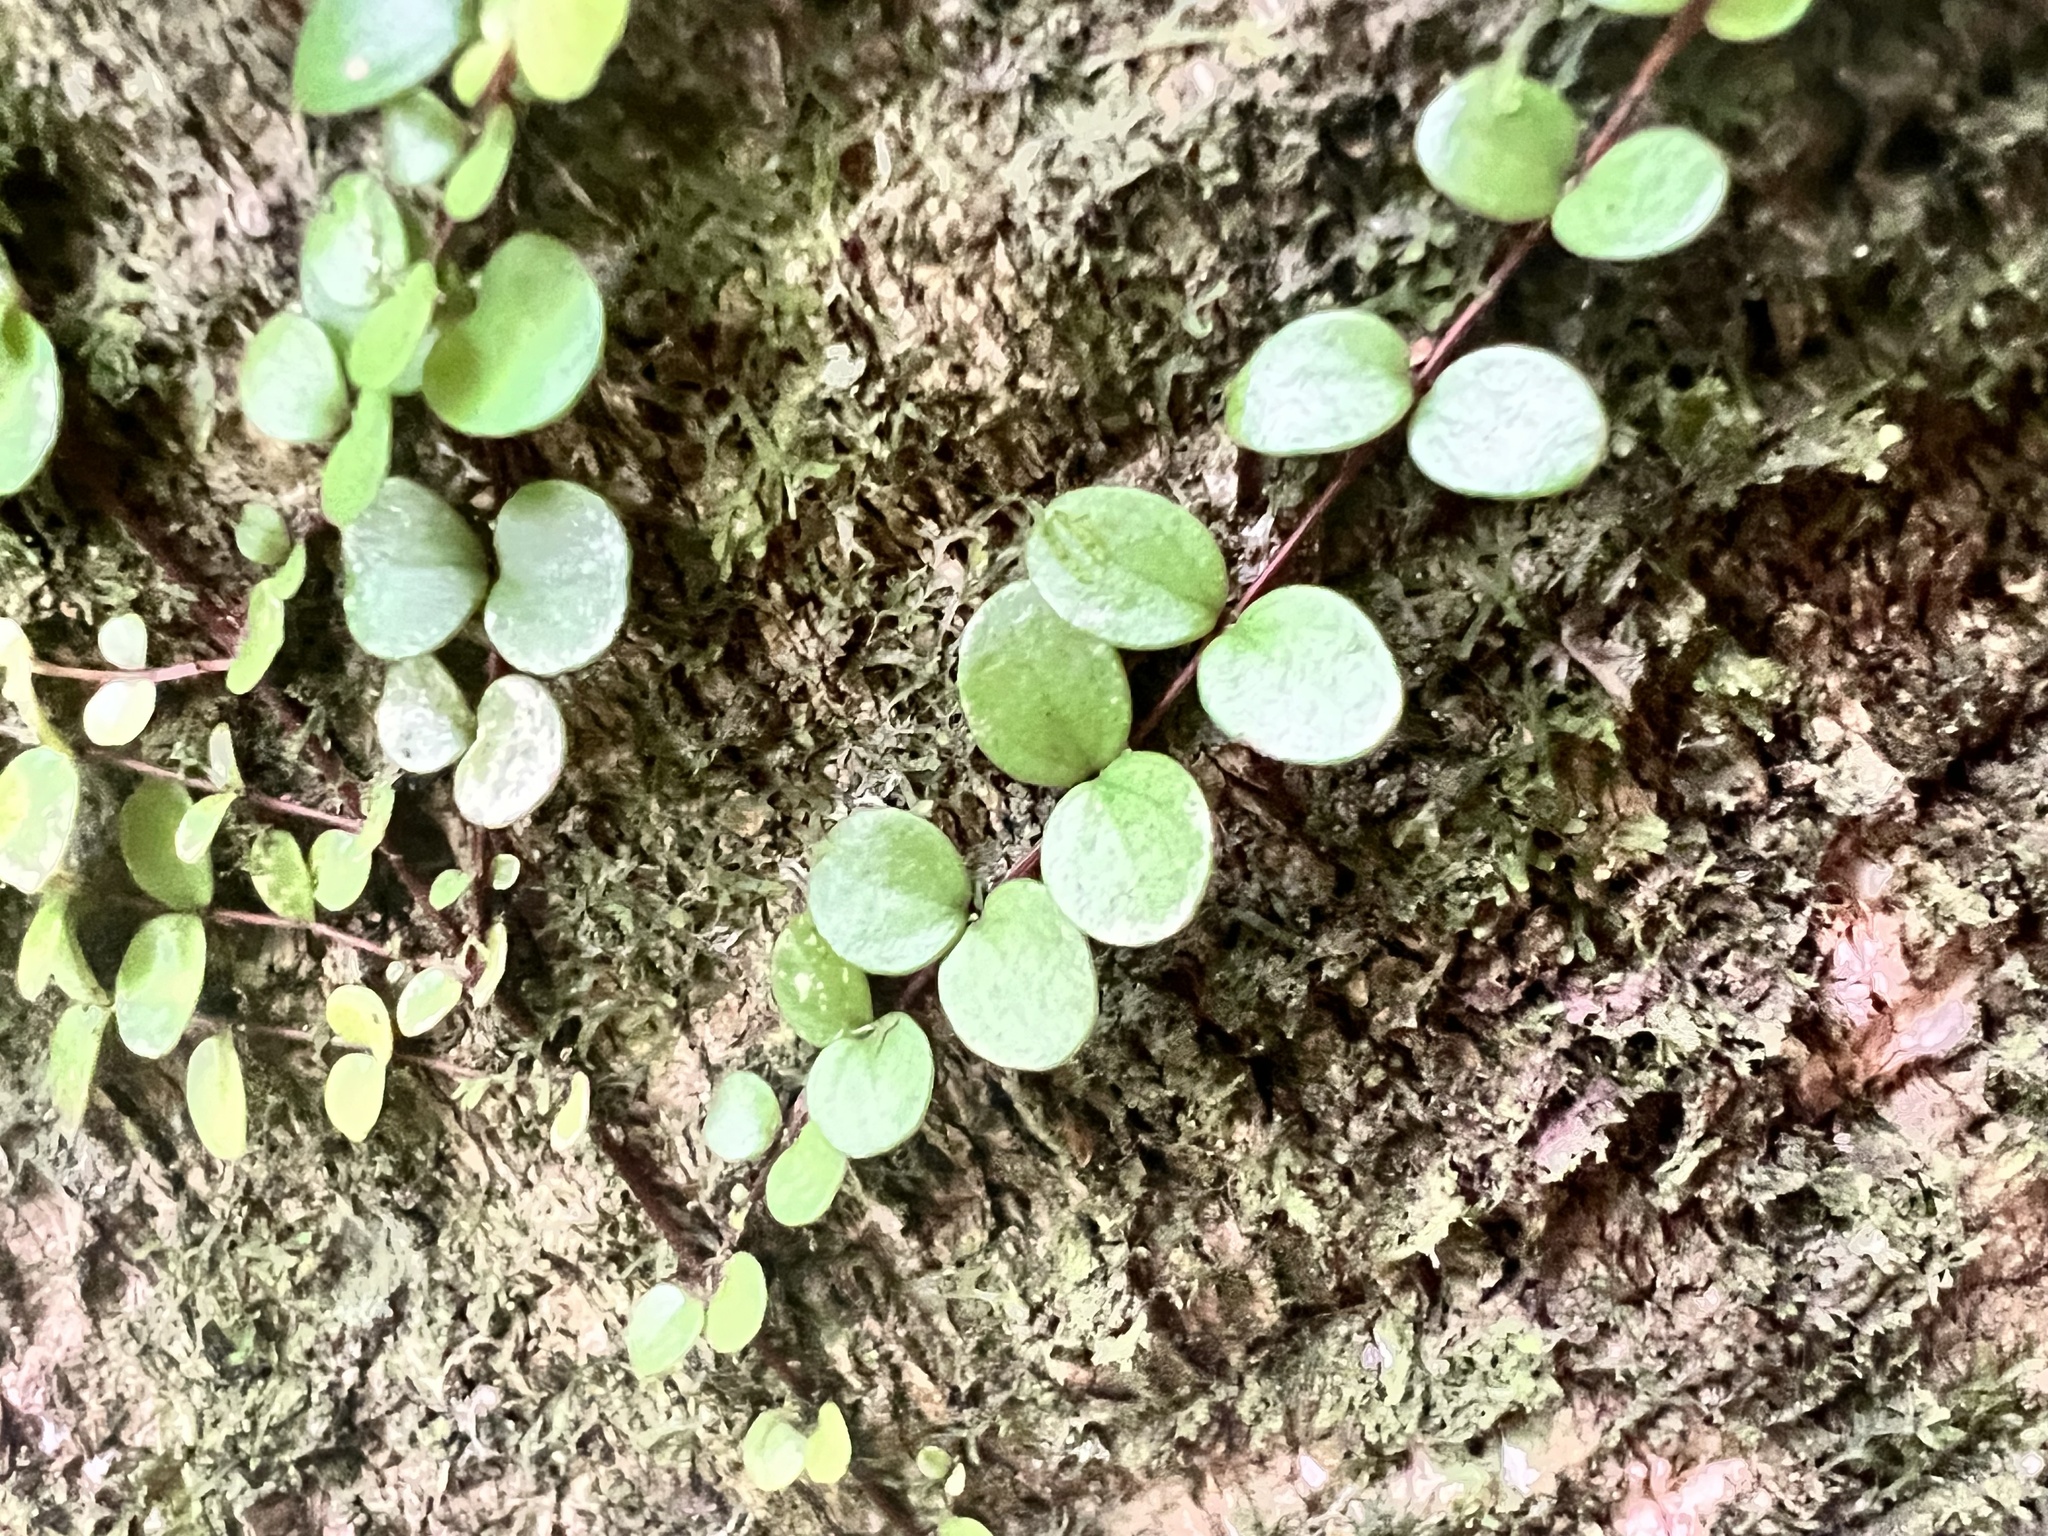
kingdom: Plantae
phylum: Tracheophyta
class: Magnoliopsida
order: Myrtales
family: Myrtaceae
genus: Metrosideros
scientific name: Metrosideros perforata
